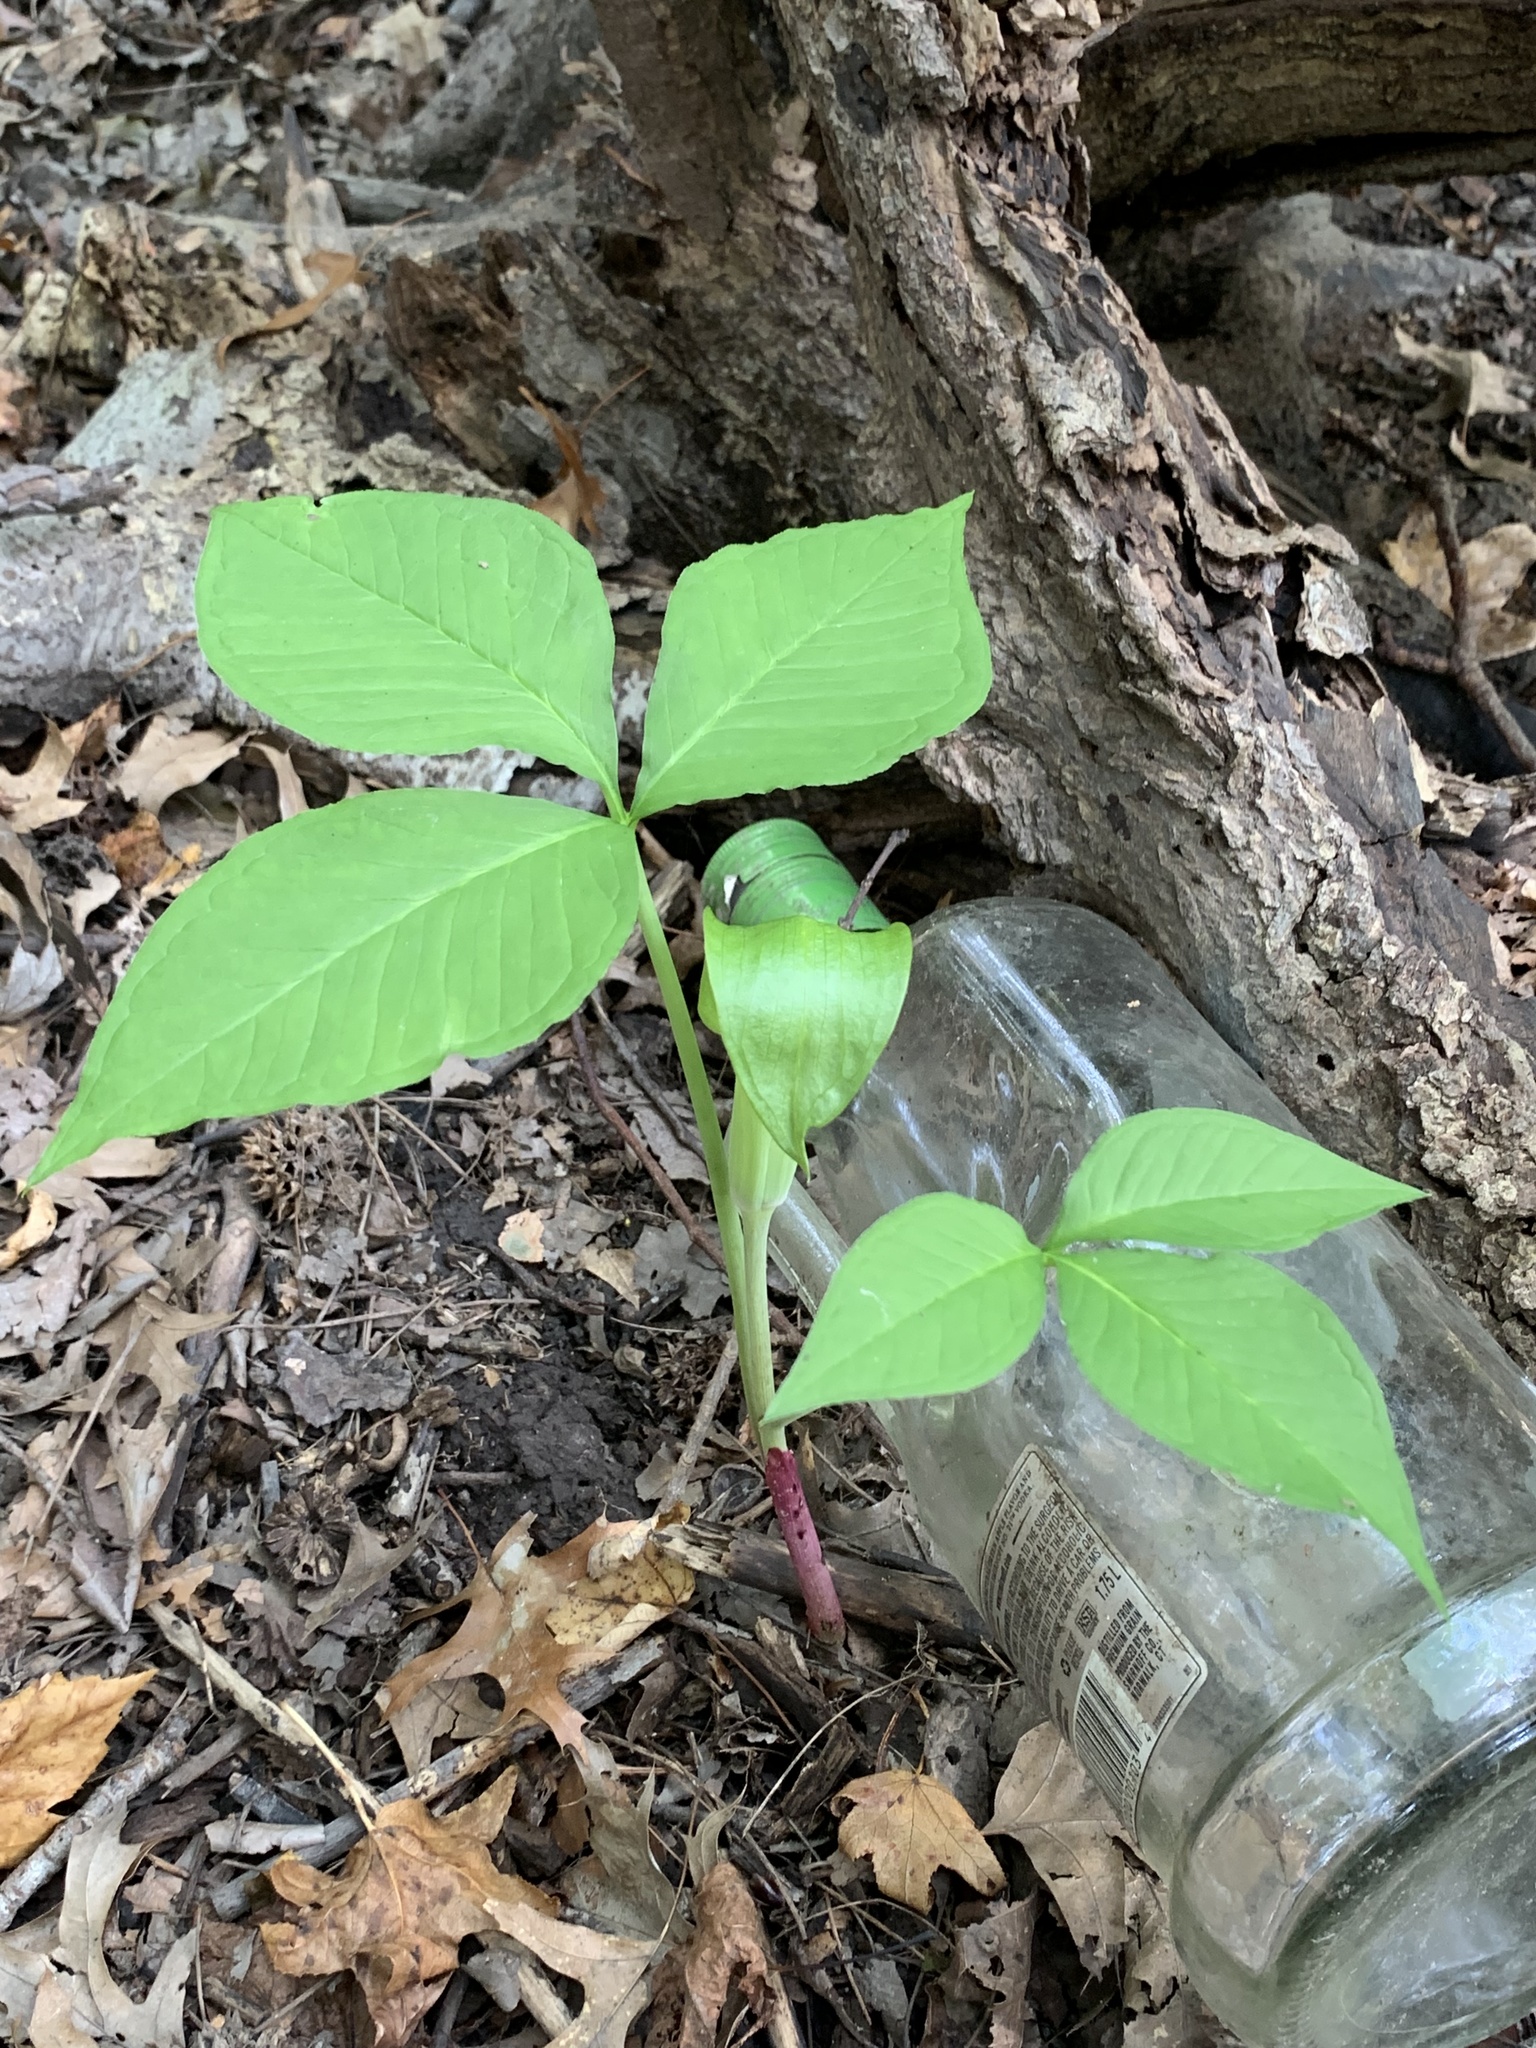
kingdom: Plantae
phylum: Tracheophyta
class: Liliopsida
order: Alismatales
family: Araceae
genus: Arisaema
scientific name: Arisaema triphyllum
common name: Jack-in-the-pulpit
